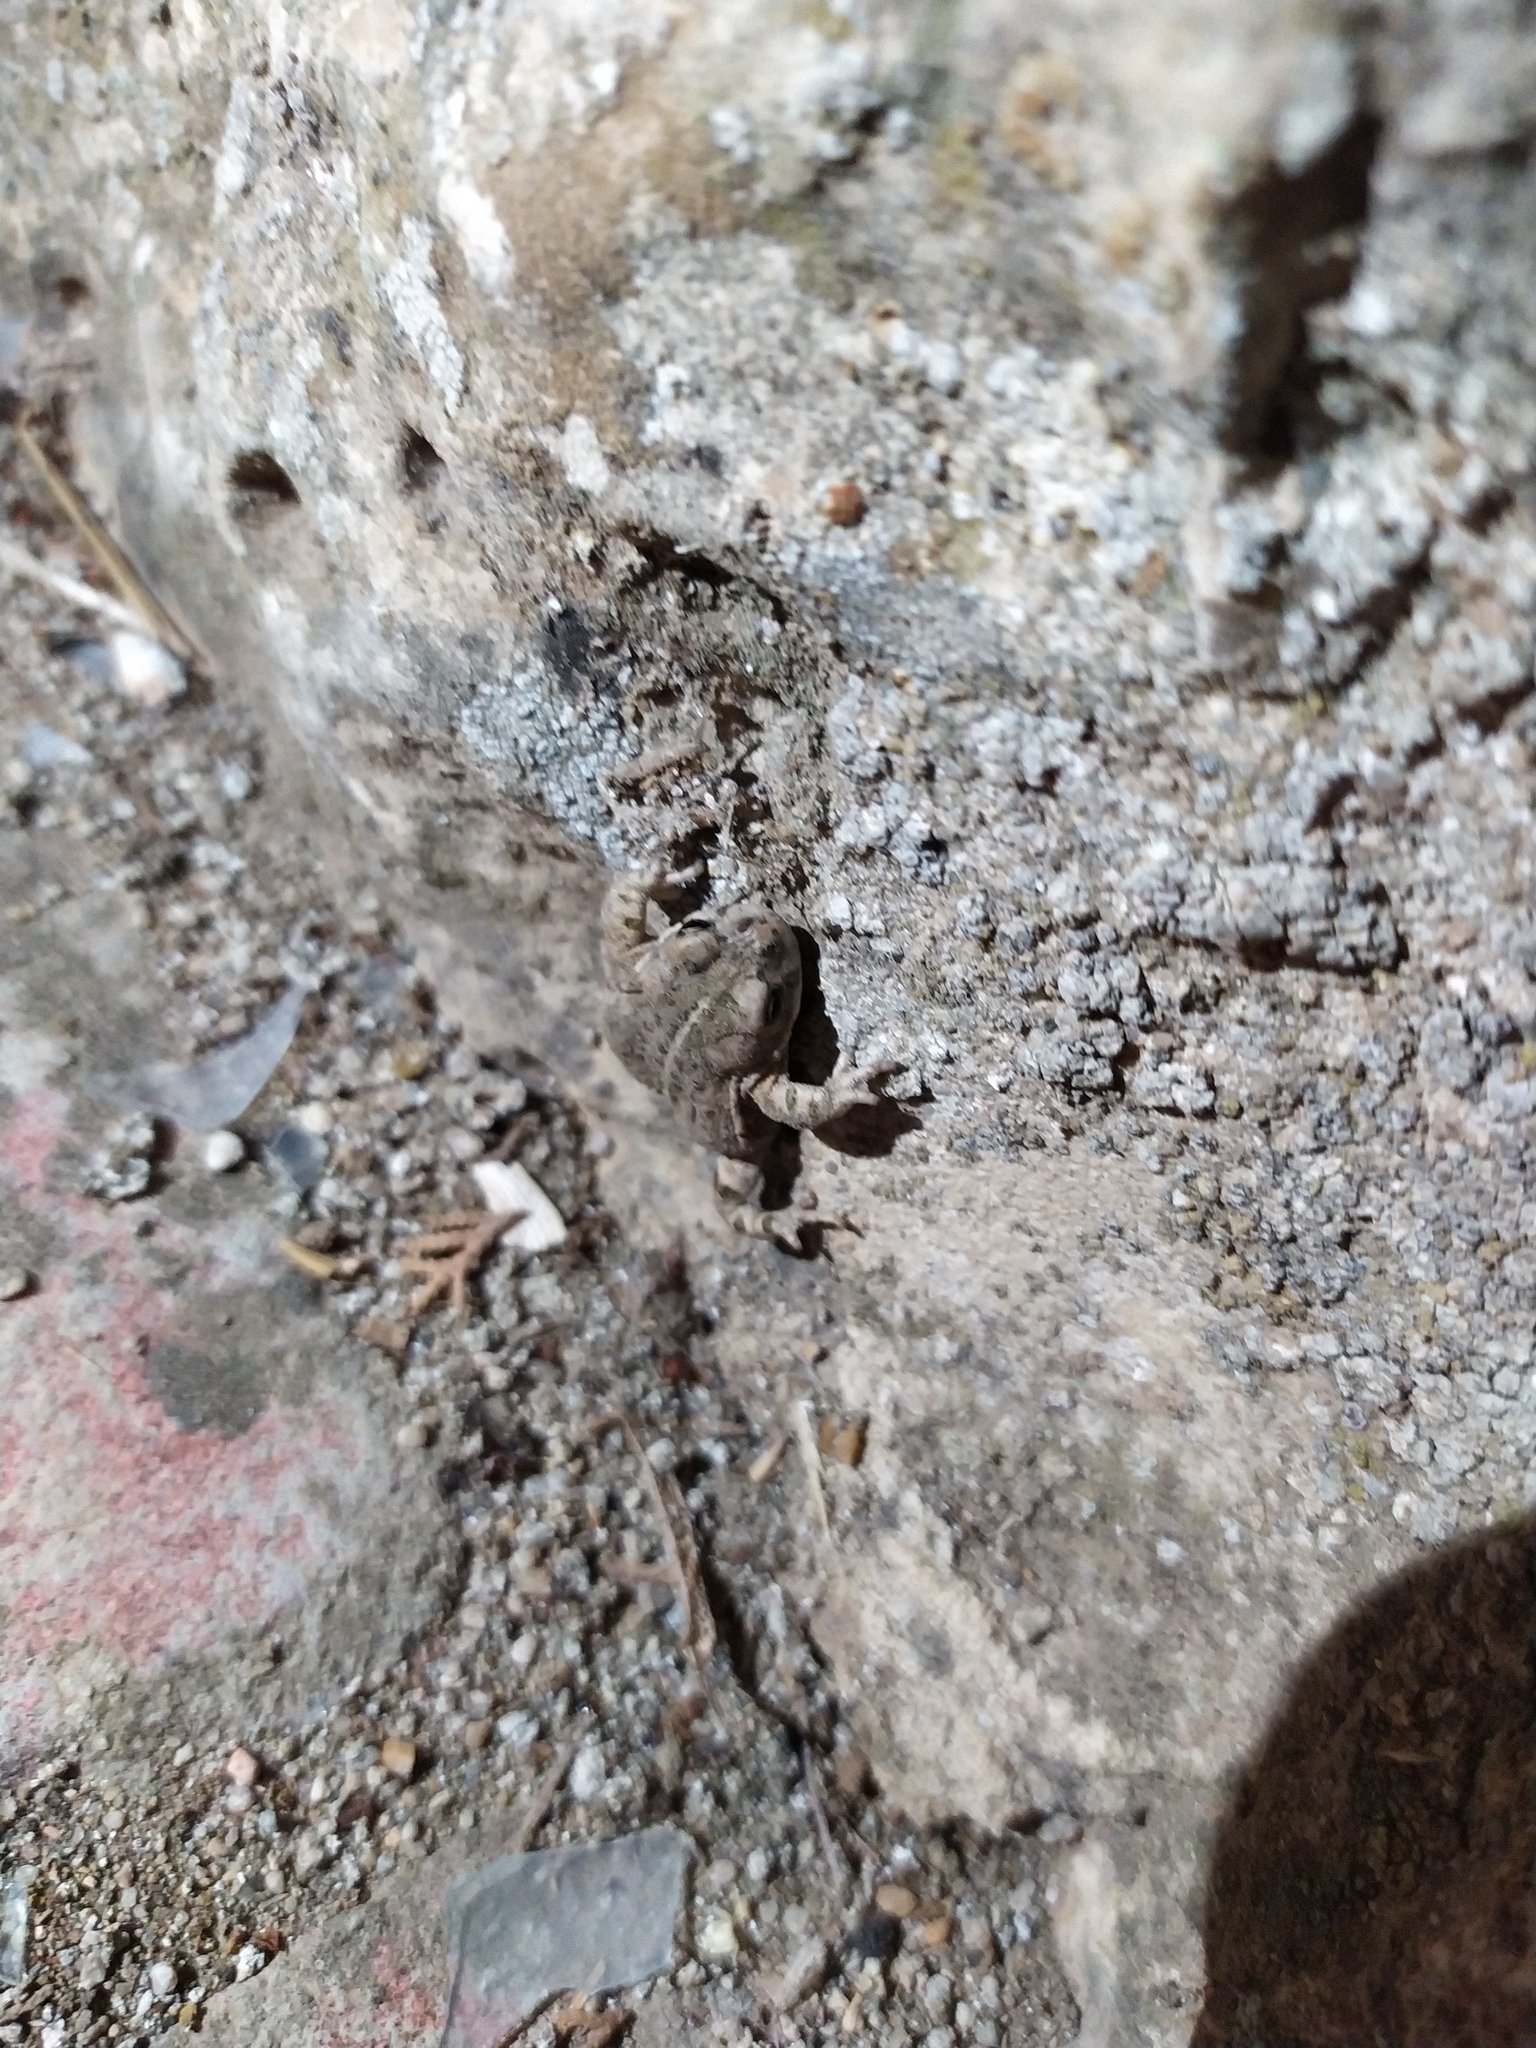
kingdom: Animalia
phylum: Chordata
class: Amphibia
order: Anura
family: Bufonidae
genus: Epidalea
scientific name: Epidalea calamita
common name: Natterjack toad
